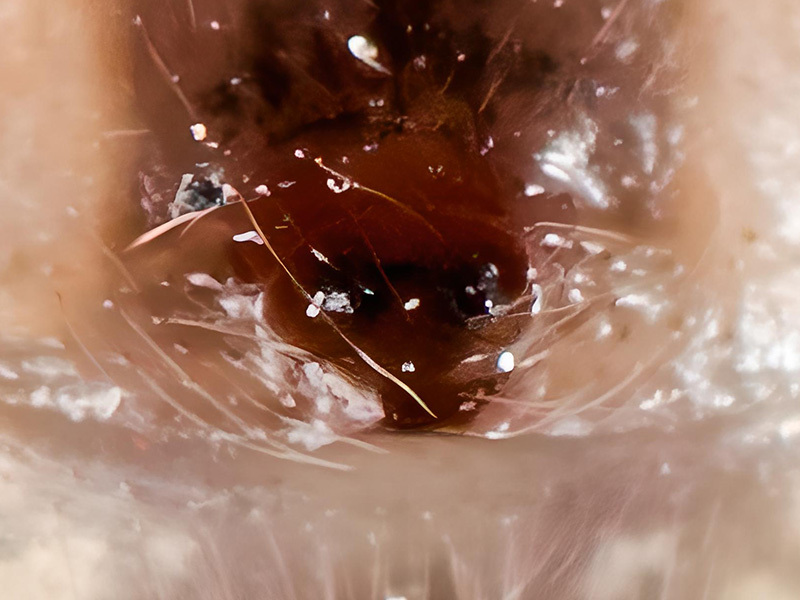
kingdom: Animalia
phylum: Arthropoda
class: Arachnida
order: Araneae
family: Theridiidae
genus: Enoplognatha
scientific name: Enoplognatha submargarita
